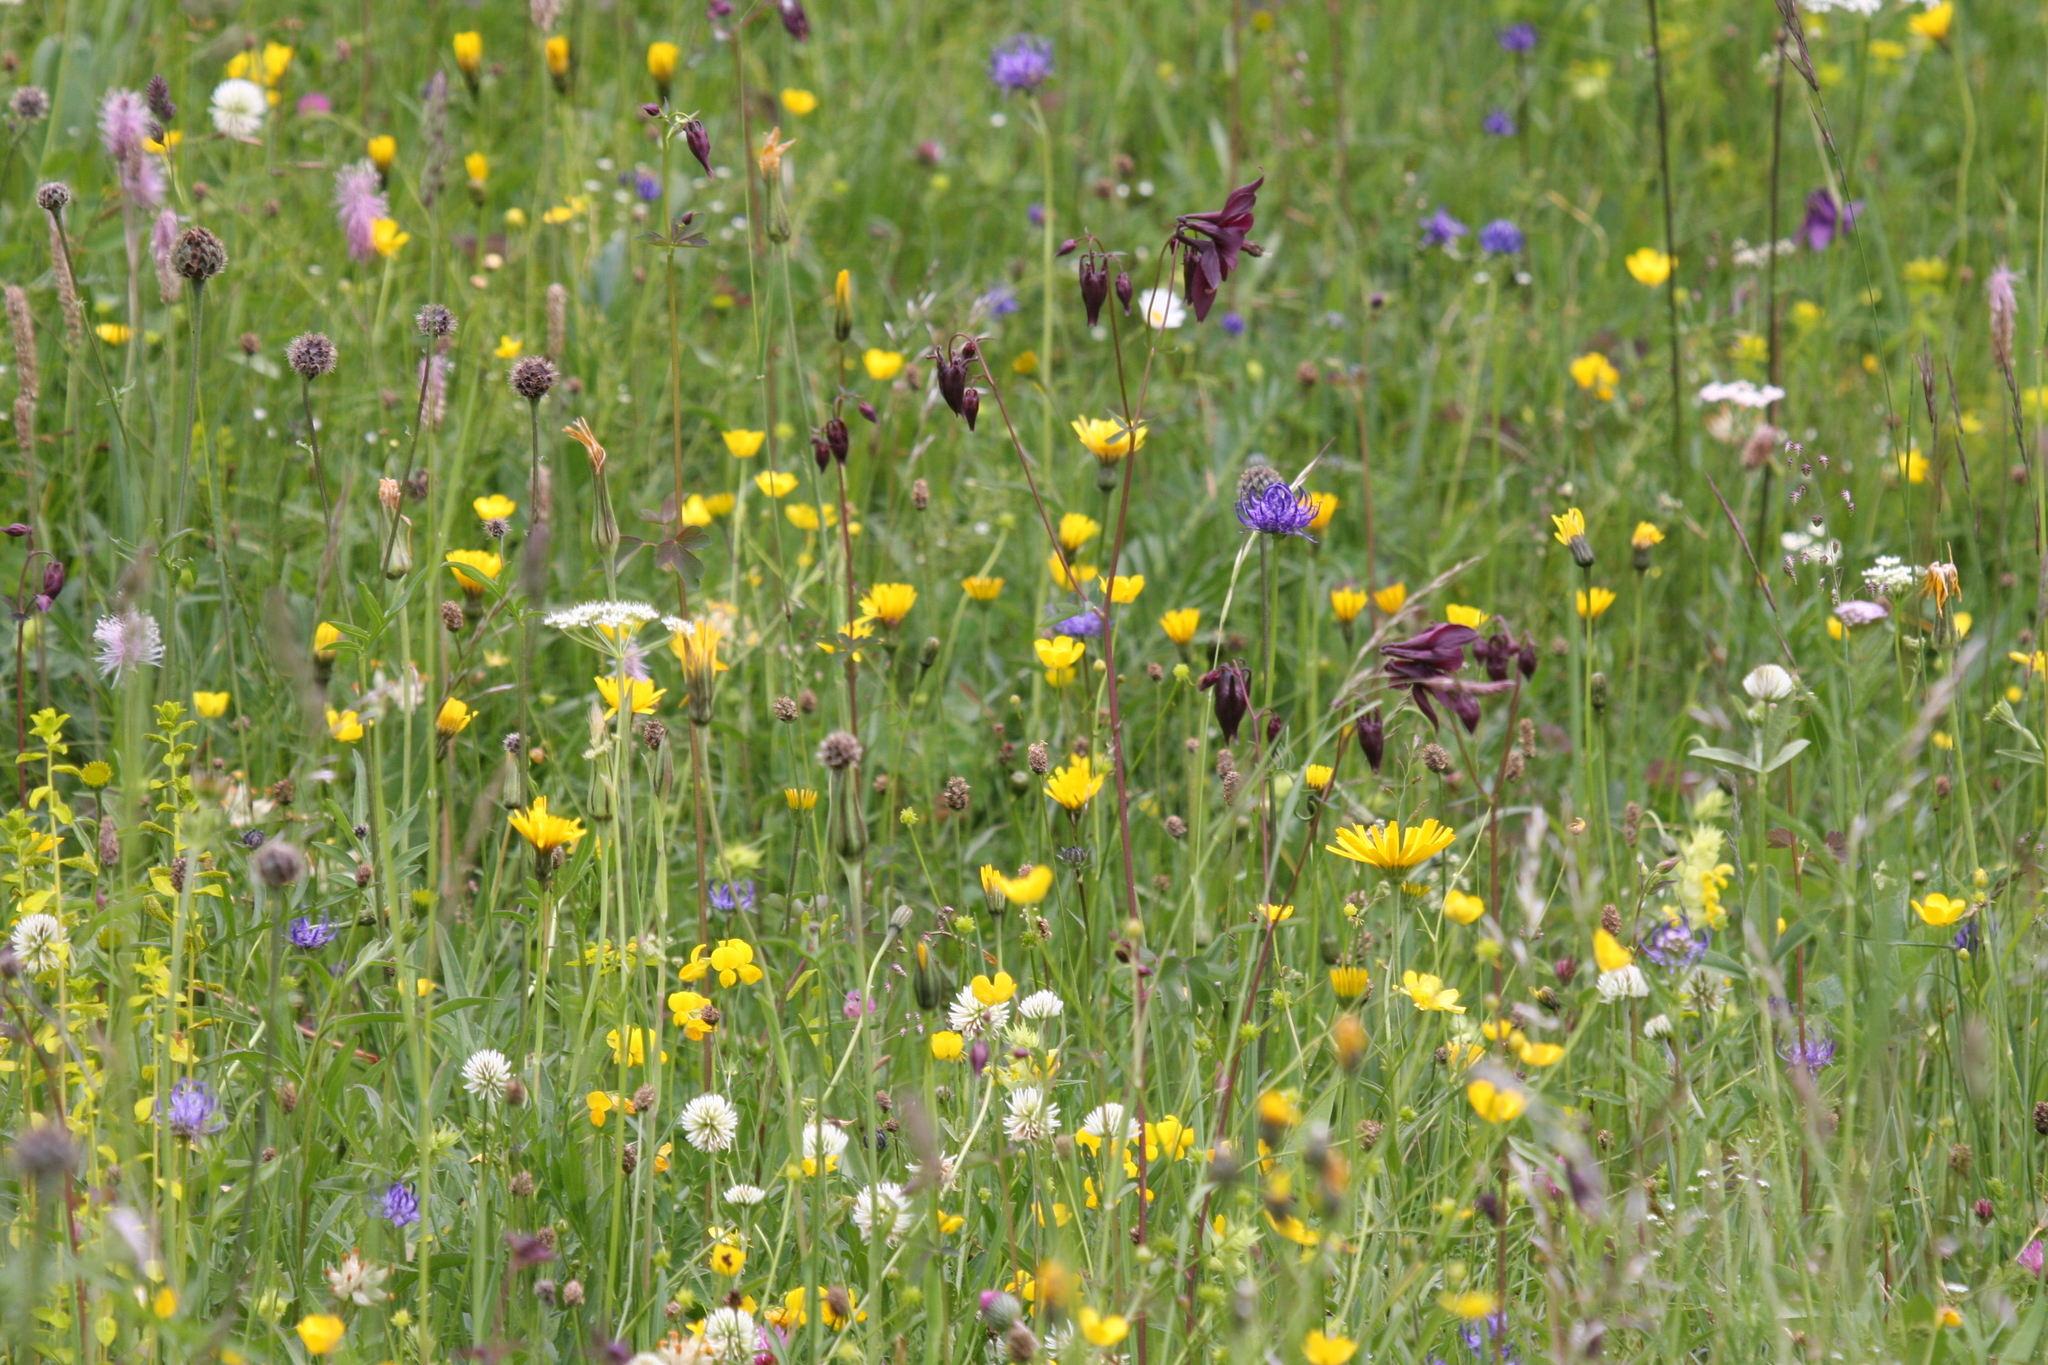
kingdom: Plantae
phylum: Tracheophyta
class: Magnoliopsida
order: Ranunculales
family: Ranunculaceae
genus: Aquilegia
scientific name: Aquilegia atrata
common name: Dark columbine
